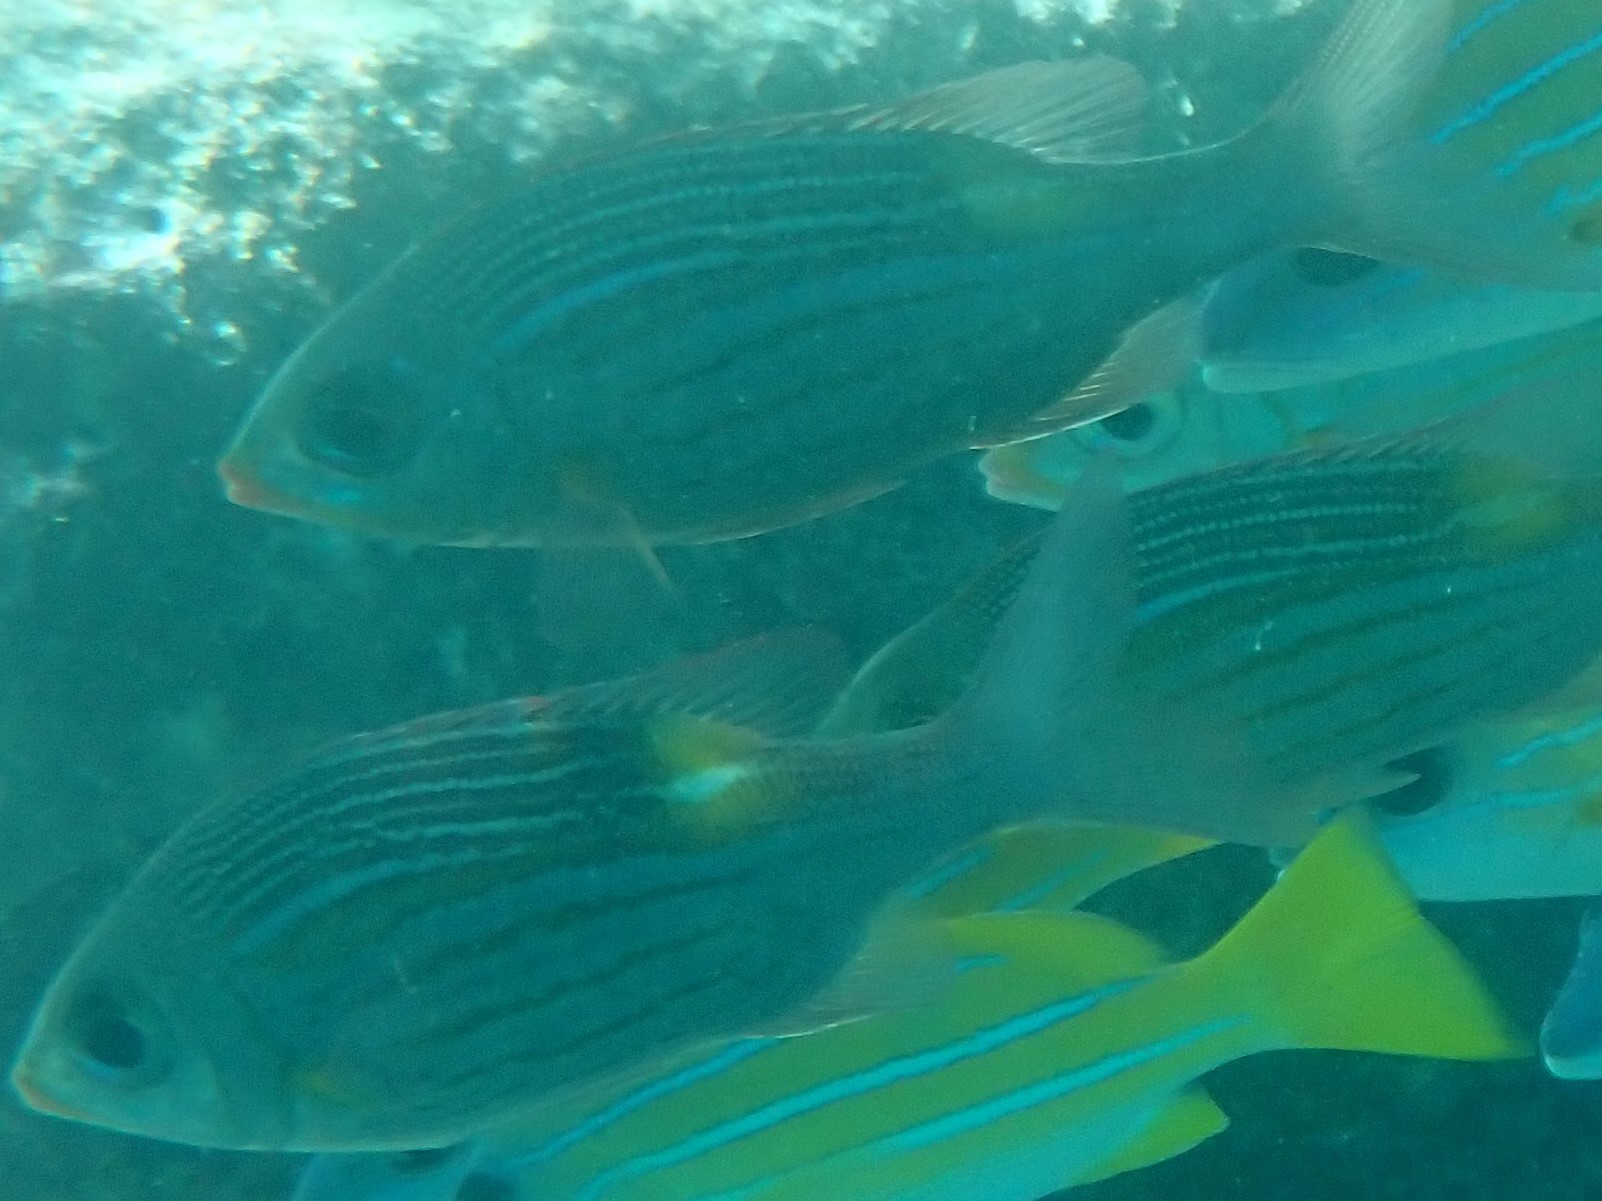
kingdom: Animalia
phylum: Chordata
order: Perciformes
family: Lethrinidae
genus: Gnathodentex
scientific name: Gnathodentex aureolineatus
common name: Gold-lined sea bream
